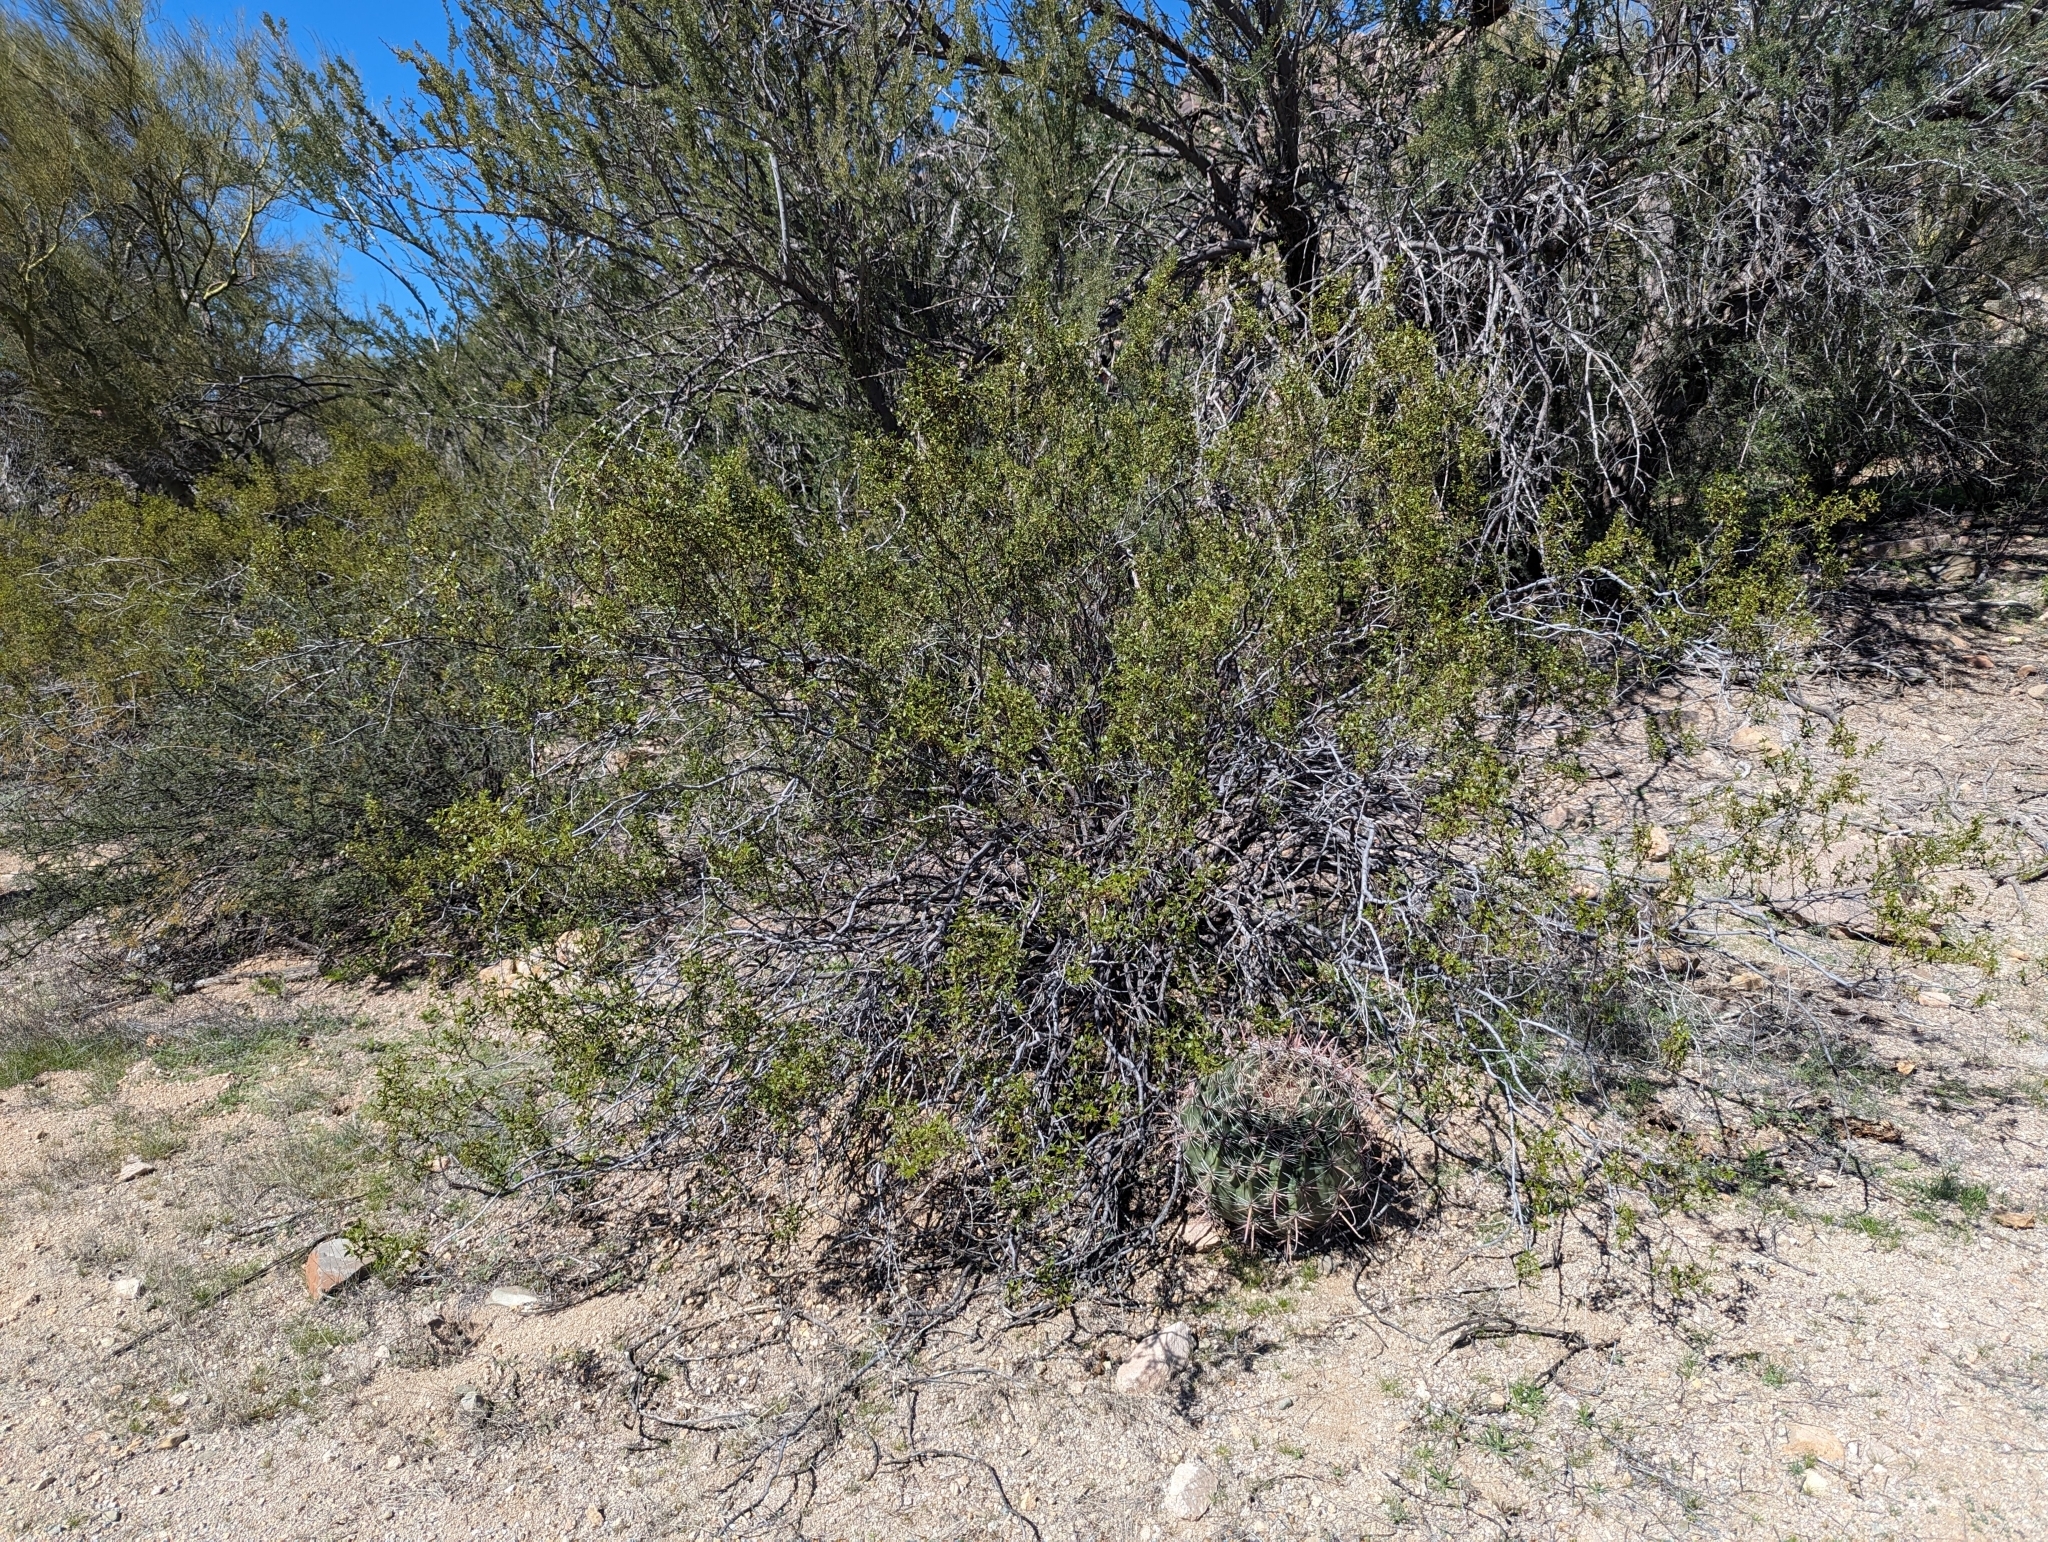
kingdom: Animalia
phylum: Arthropoda
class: Insecta
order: Diptera
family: Cecidomyiidae
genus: Asphondylia
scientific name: Asphondylia auripila
